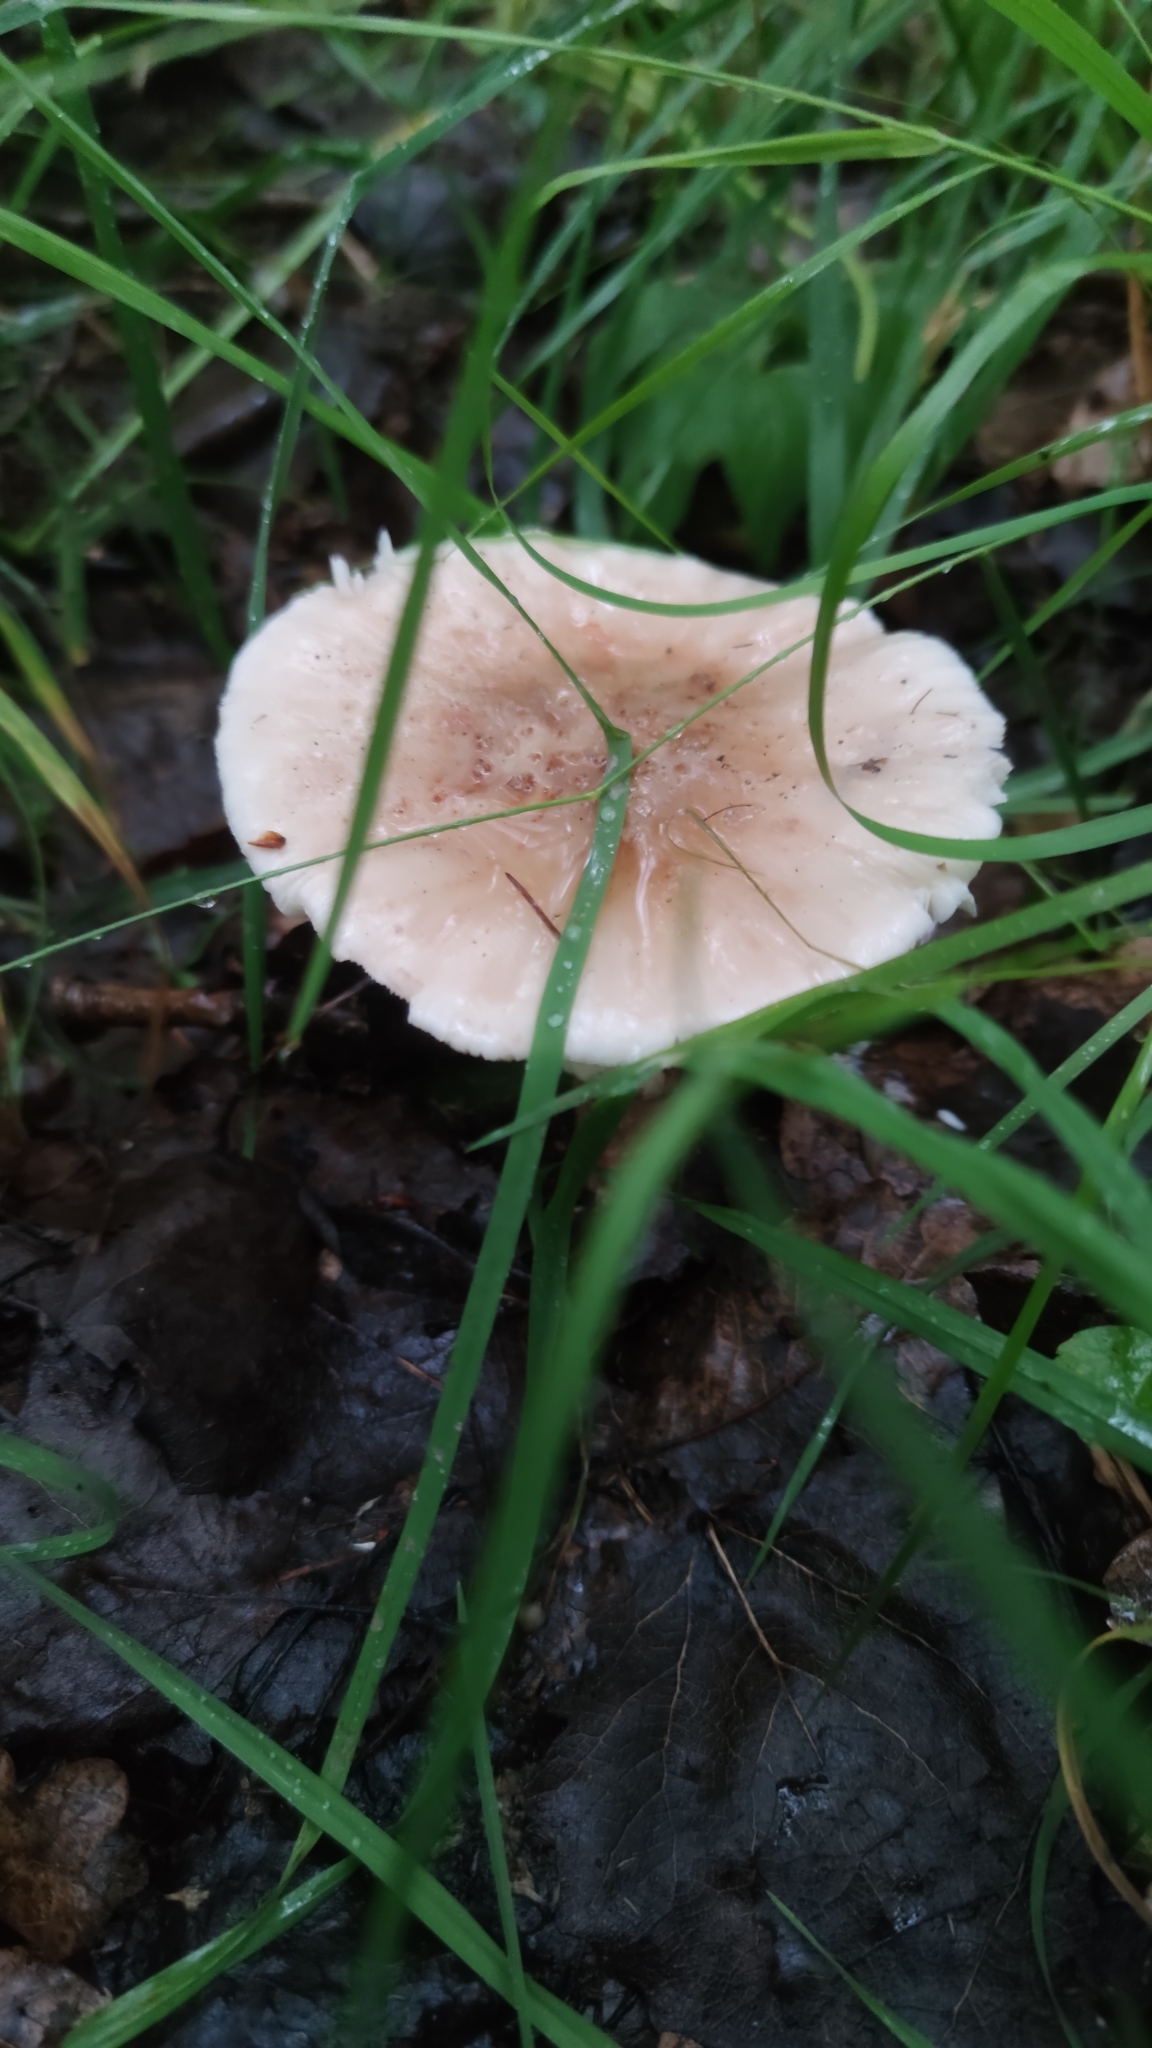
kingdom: Fungi
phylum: Basidiomycota
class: Agaricomycetes
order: Agaricales
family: Amanitaceae
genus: Amanita
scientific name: Amanita rubescens
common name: Blusher
